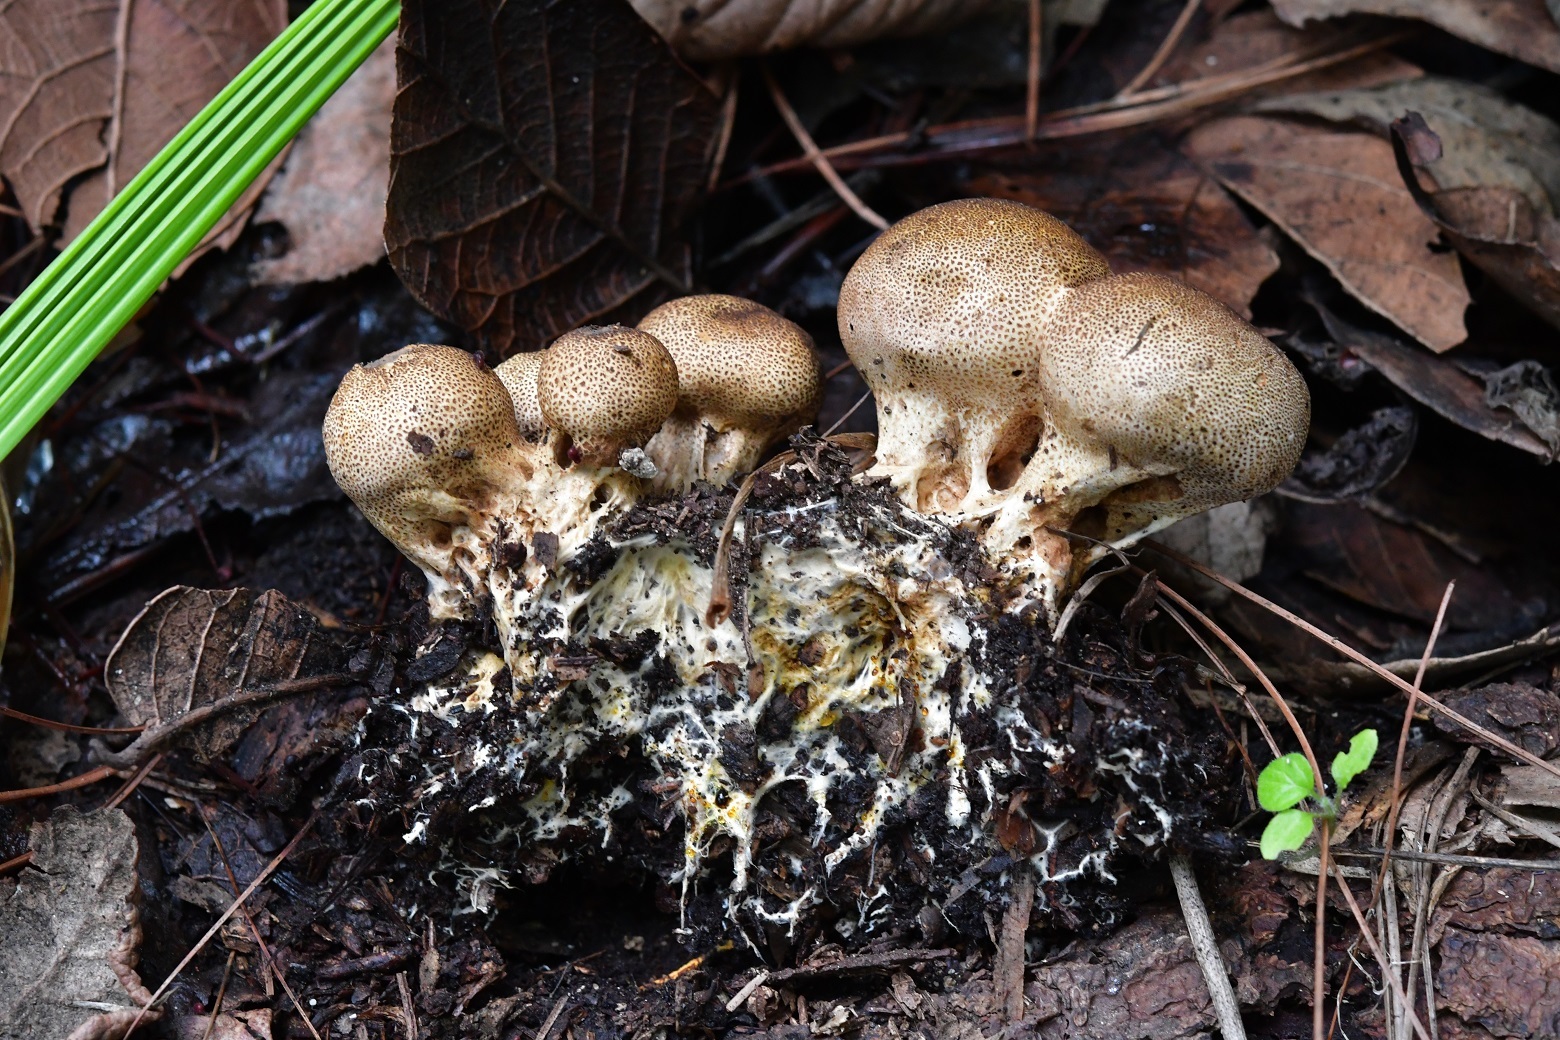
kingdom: Fungi
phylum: Basidiomycota
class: Agaricomycetes
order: Boletales
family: Sclerodermataceae
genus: Scleroderma
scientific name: Scleroderma areolatum
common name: Leopard earthball
